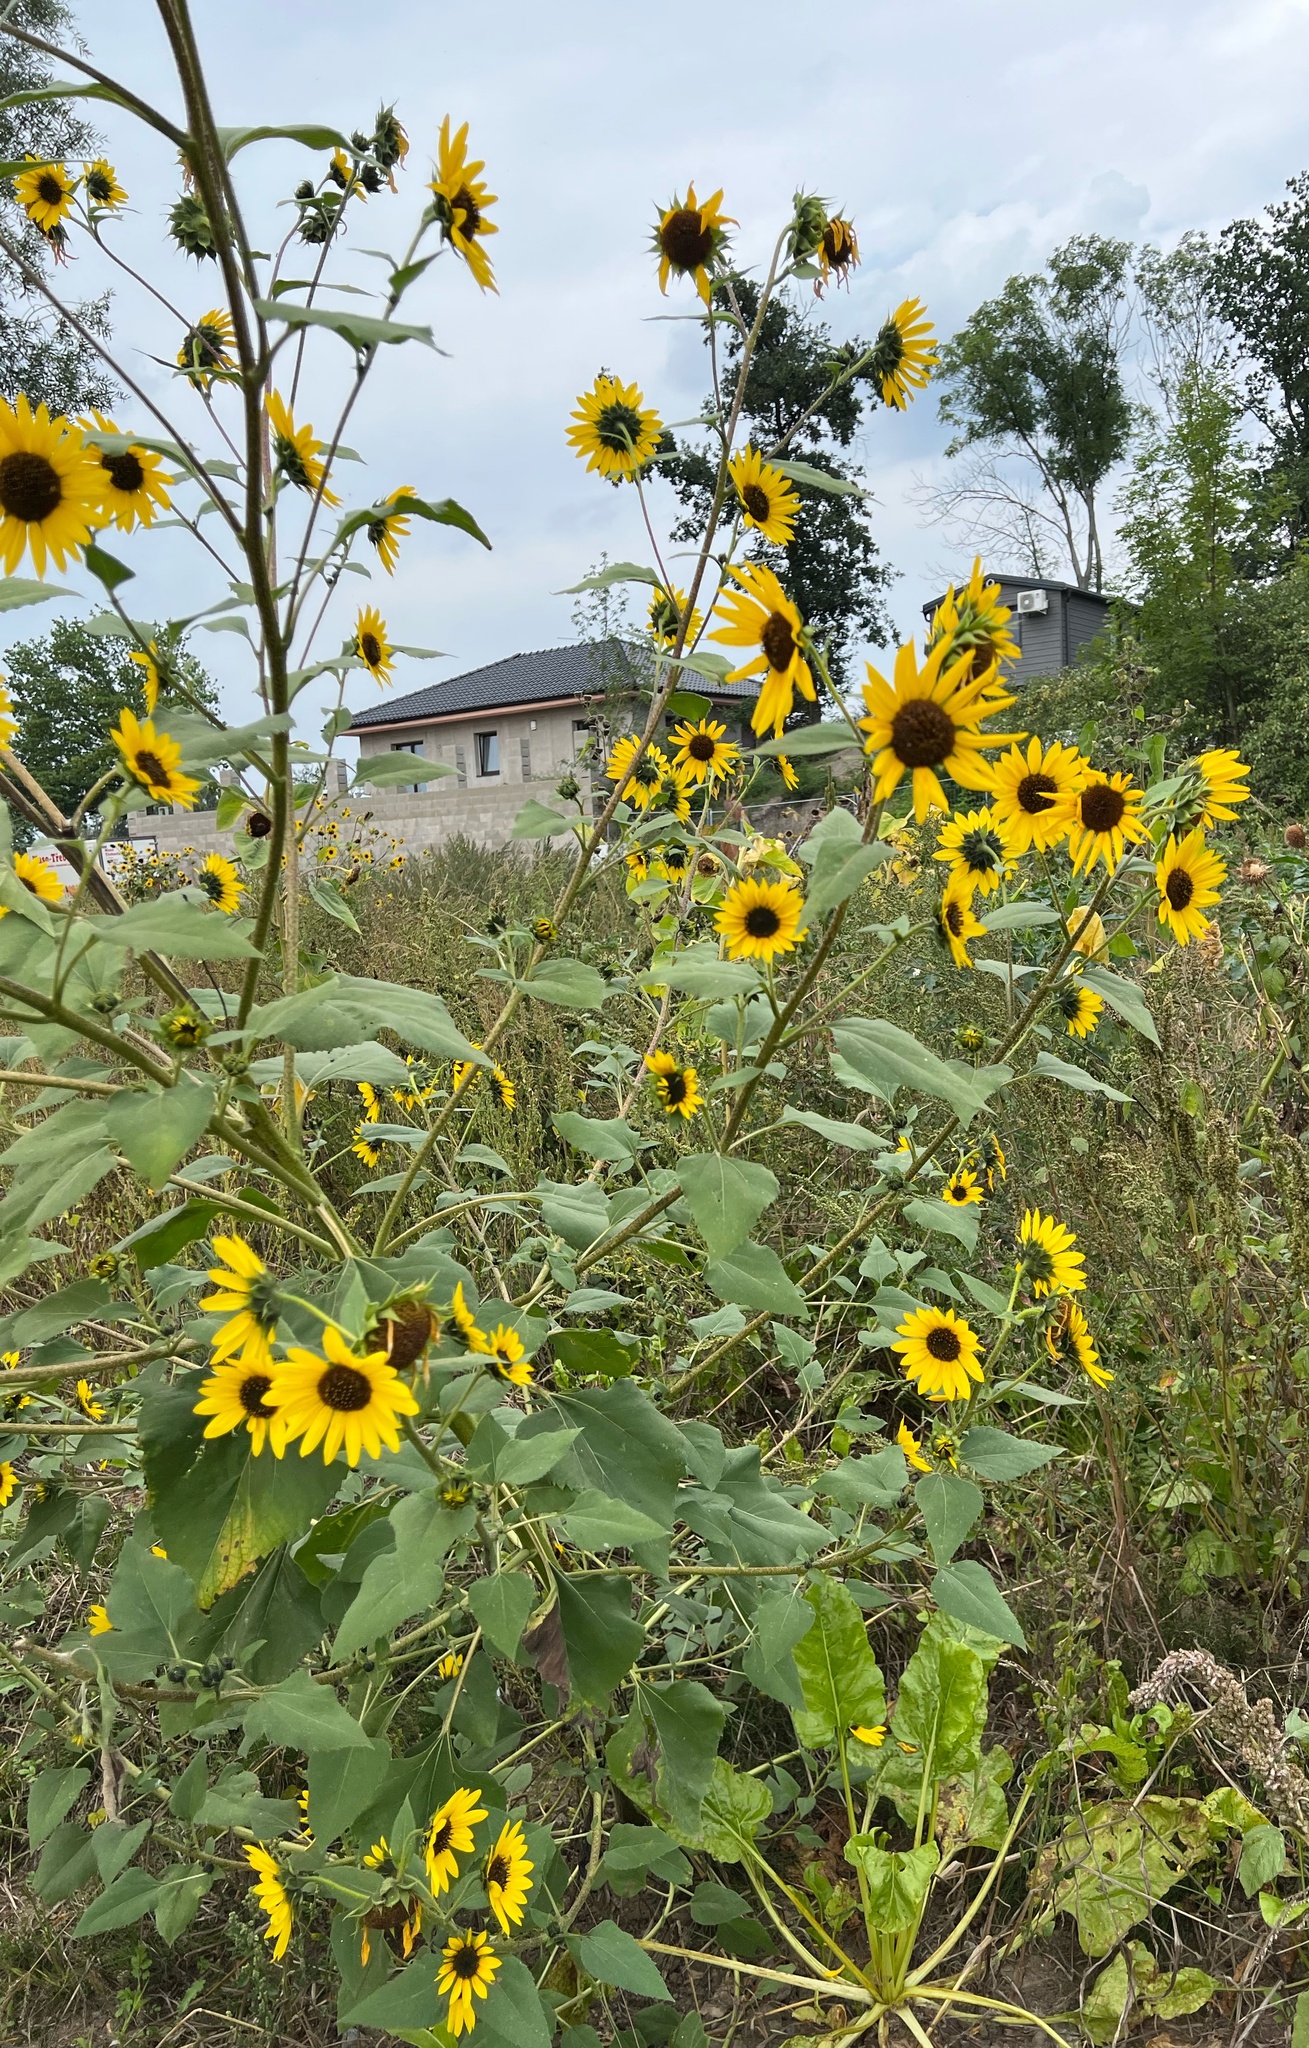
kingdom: Plantae
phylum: Tracheophyta
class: Magnoliopsida
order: Asterales
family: Asteraceae
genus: Helianthus
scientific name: Helianthus annuus
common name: Sunflower
